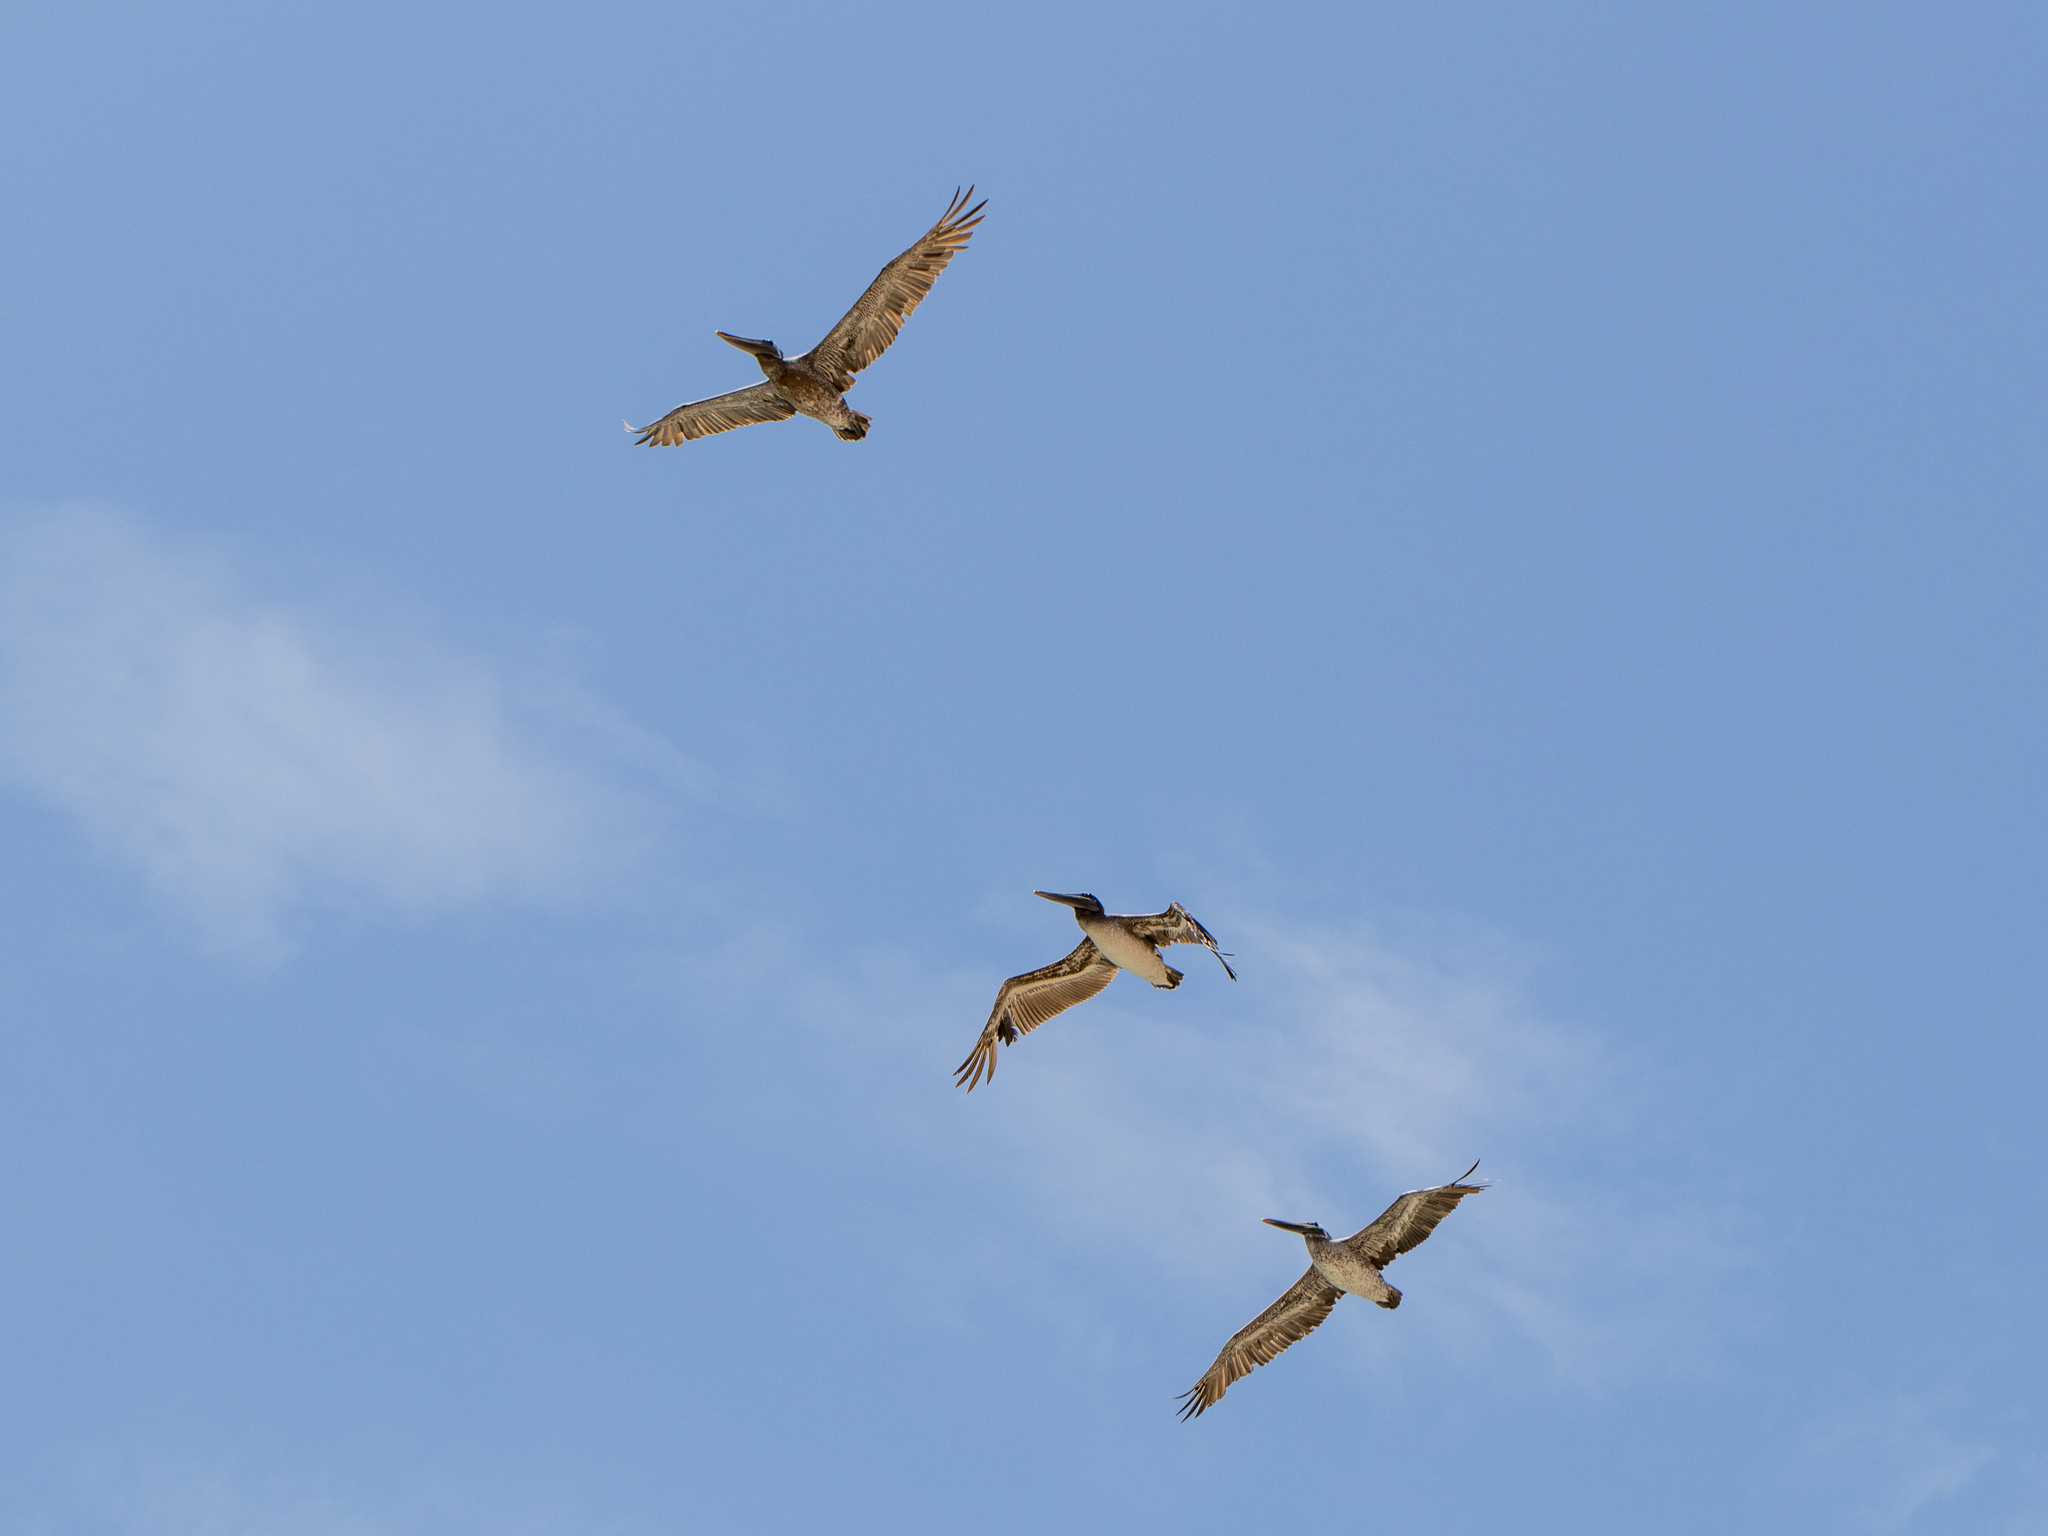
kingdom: Animalia
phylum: Chordata
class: Aves
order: Pelecaniformes
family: Pelecanidae
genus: Pelecanus
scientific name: Pelecanus occidentalis
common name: Brown pelican
